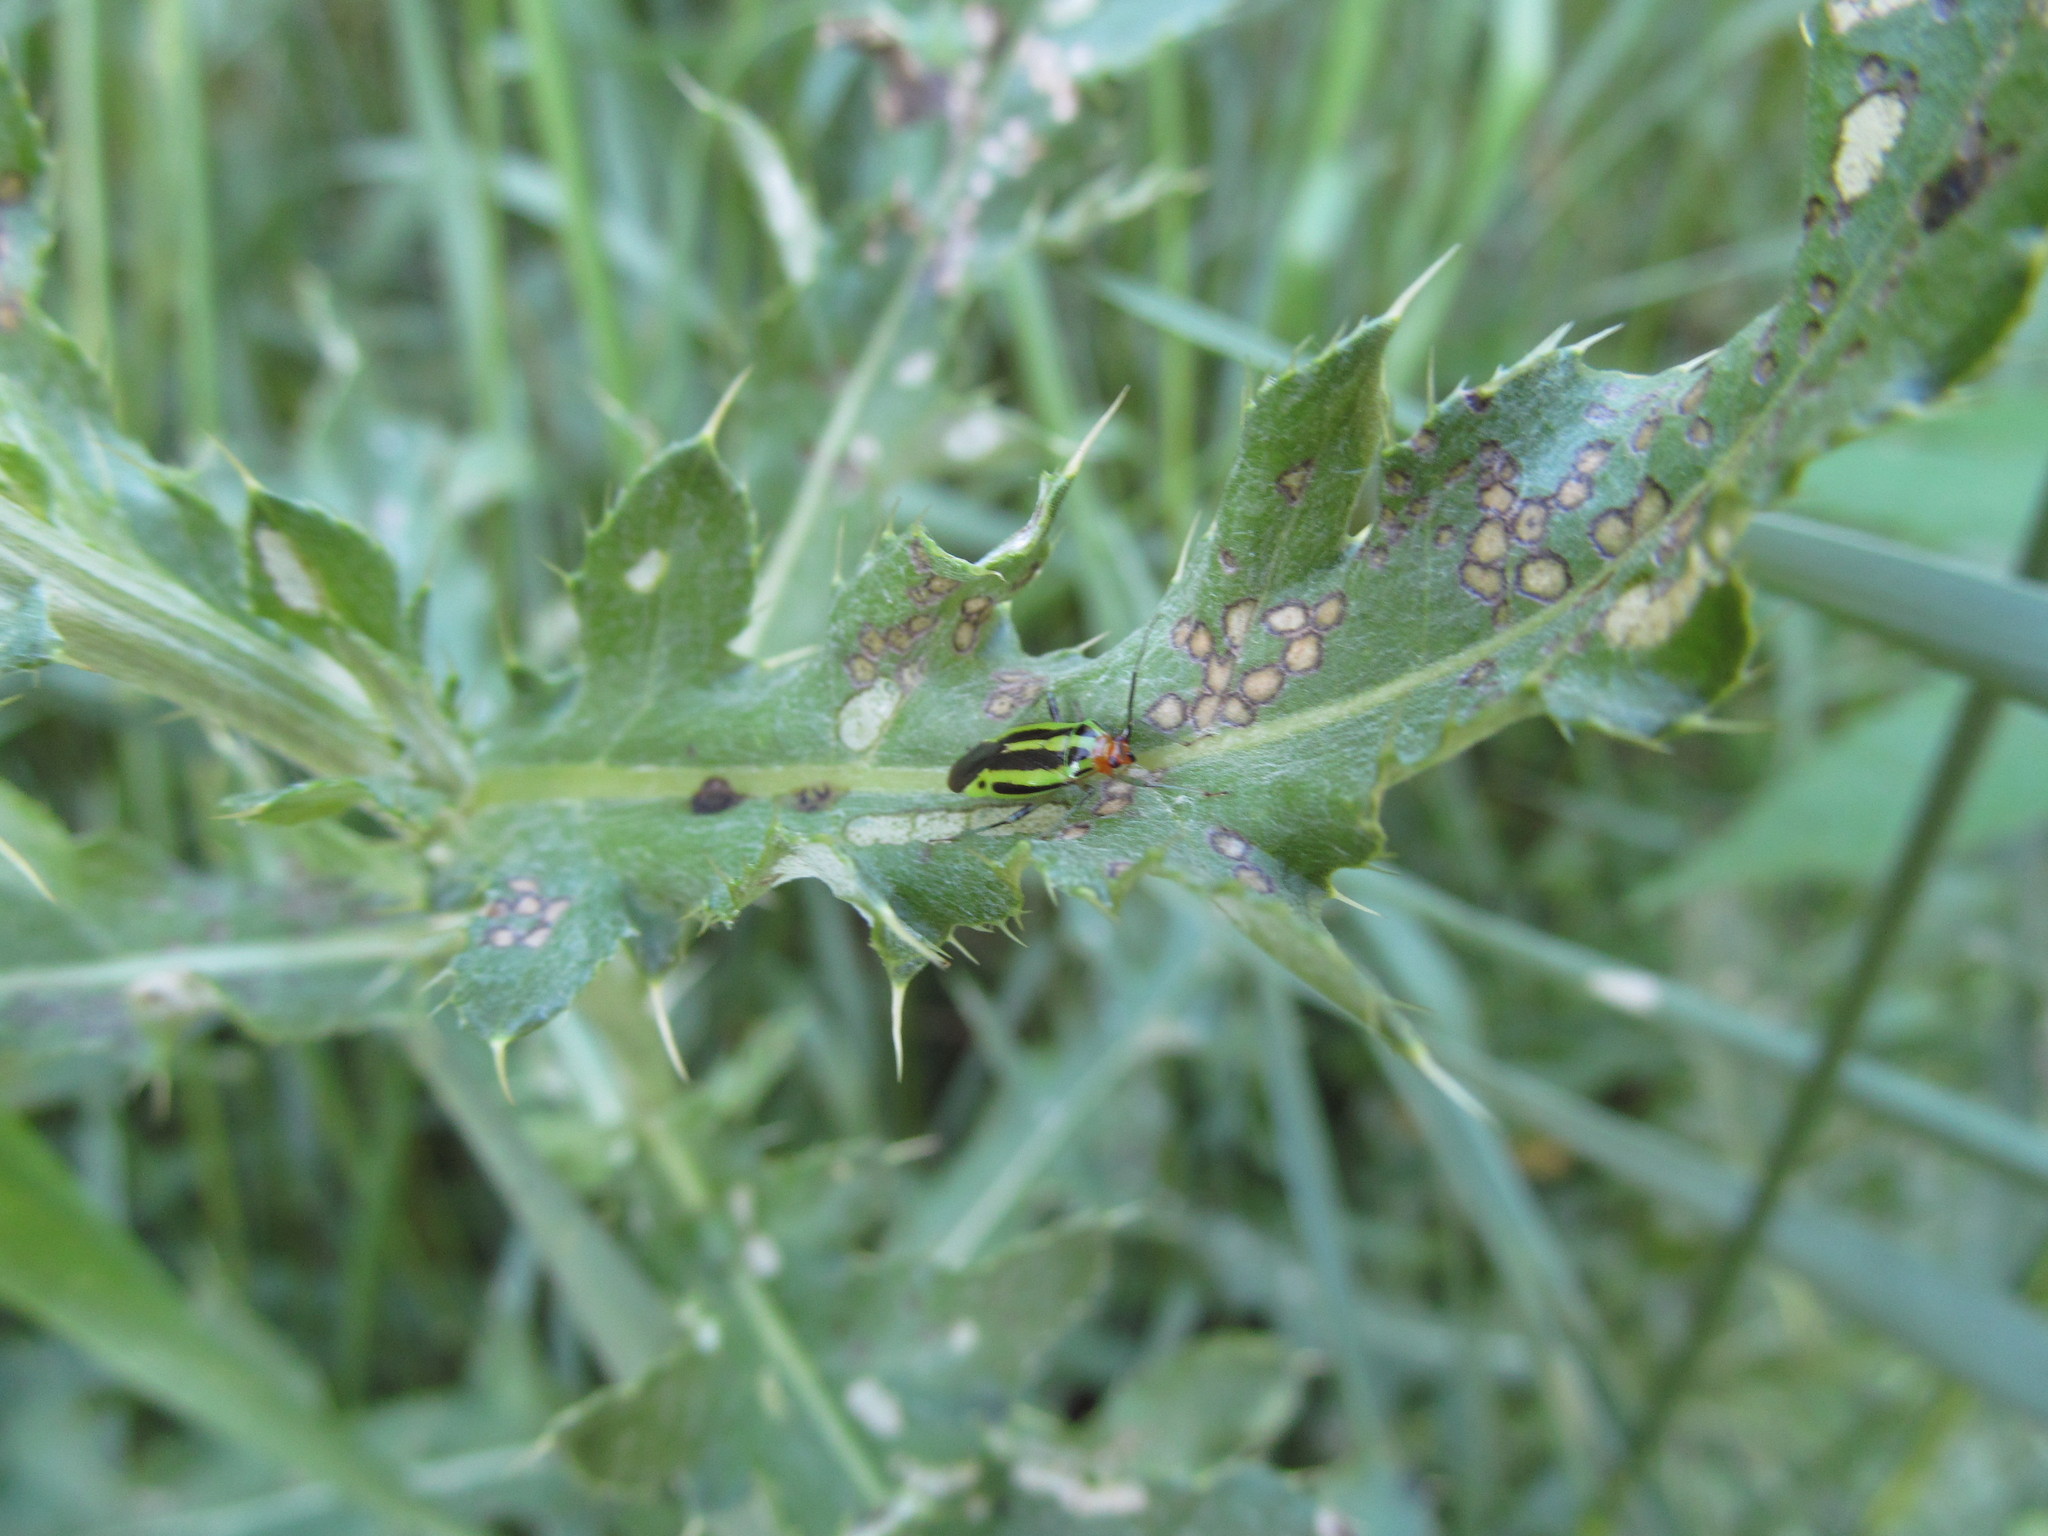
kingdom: Animalia
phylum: Arthropoda
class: Insecta
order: Hemiptera
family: Miridae
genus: Poecilocapsus
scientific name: Poecilocapsus lineatus
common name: Four-lined plant bug
